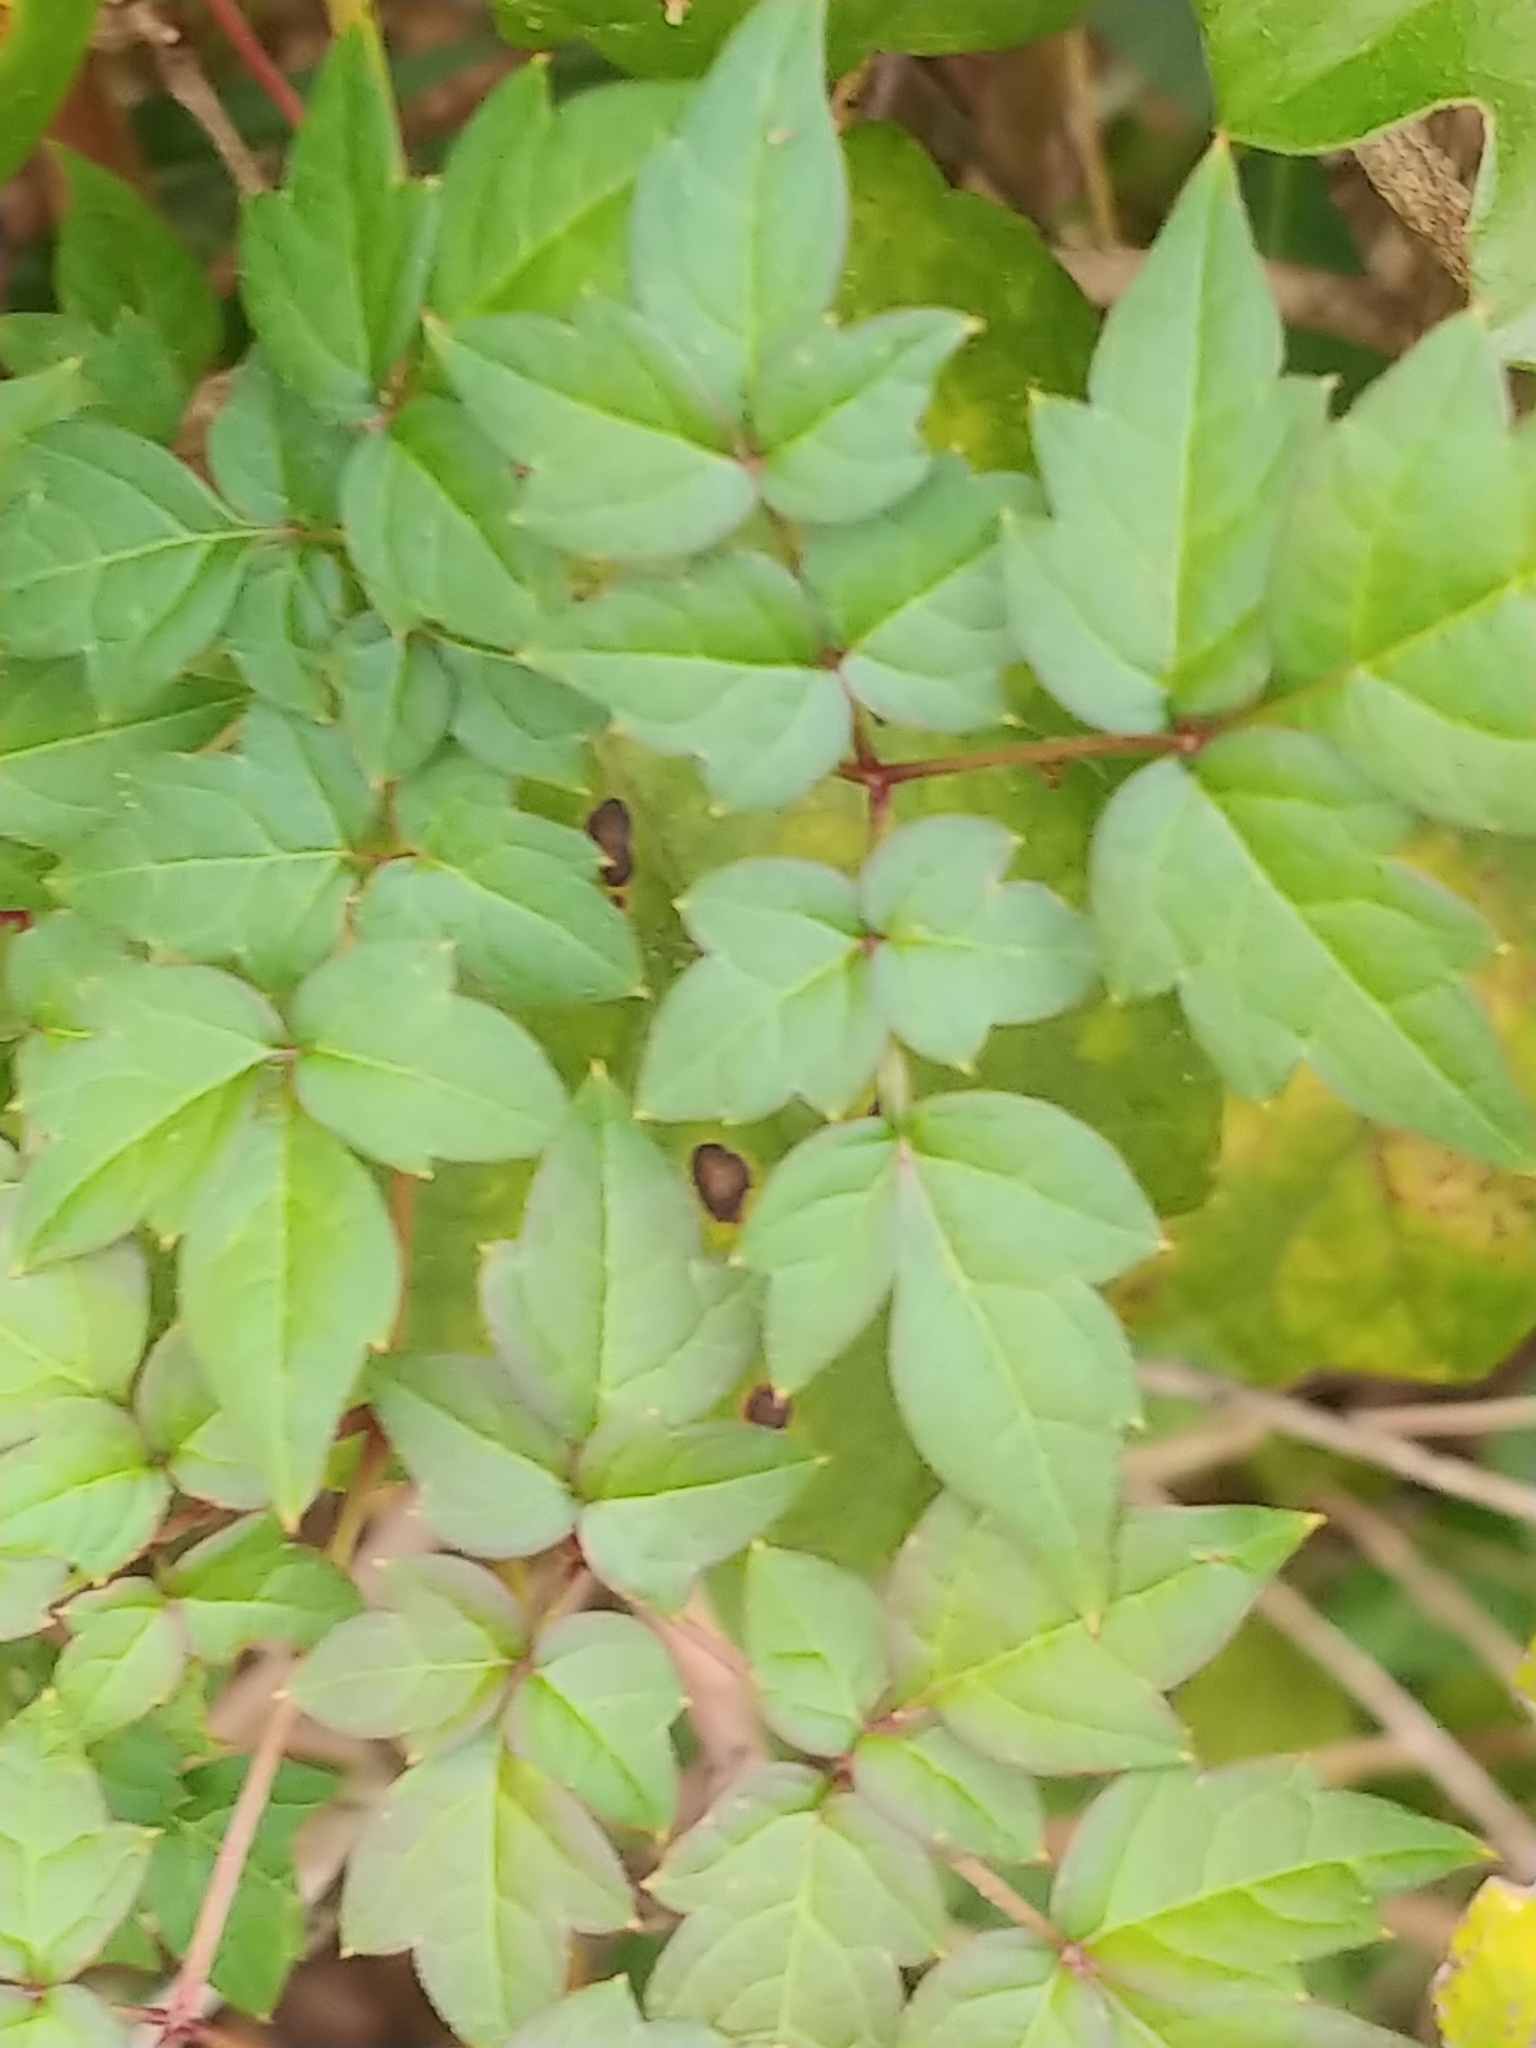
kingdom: Plantae
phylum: Tracheophyta
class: Magnoliopsida
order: Vitales
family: Vitaceae
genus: Nekemias
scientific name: Nekemias arborea
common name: Peppervine
